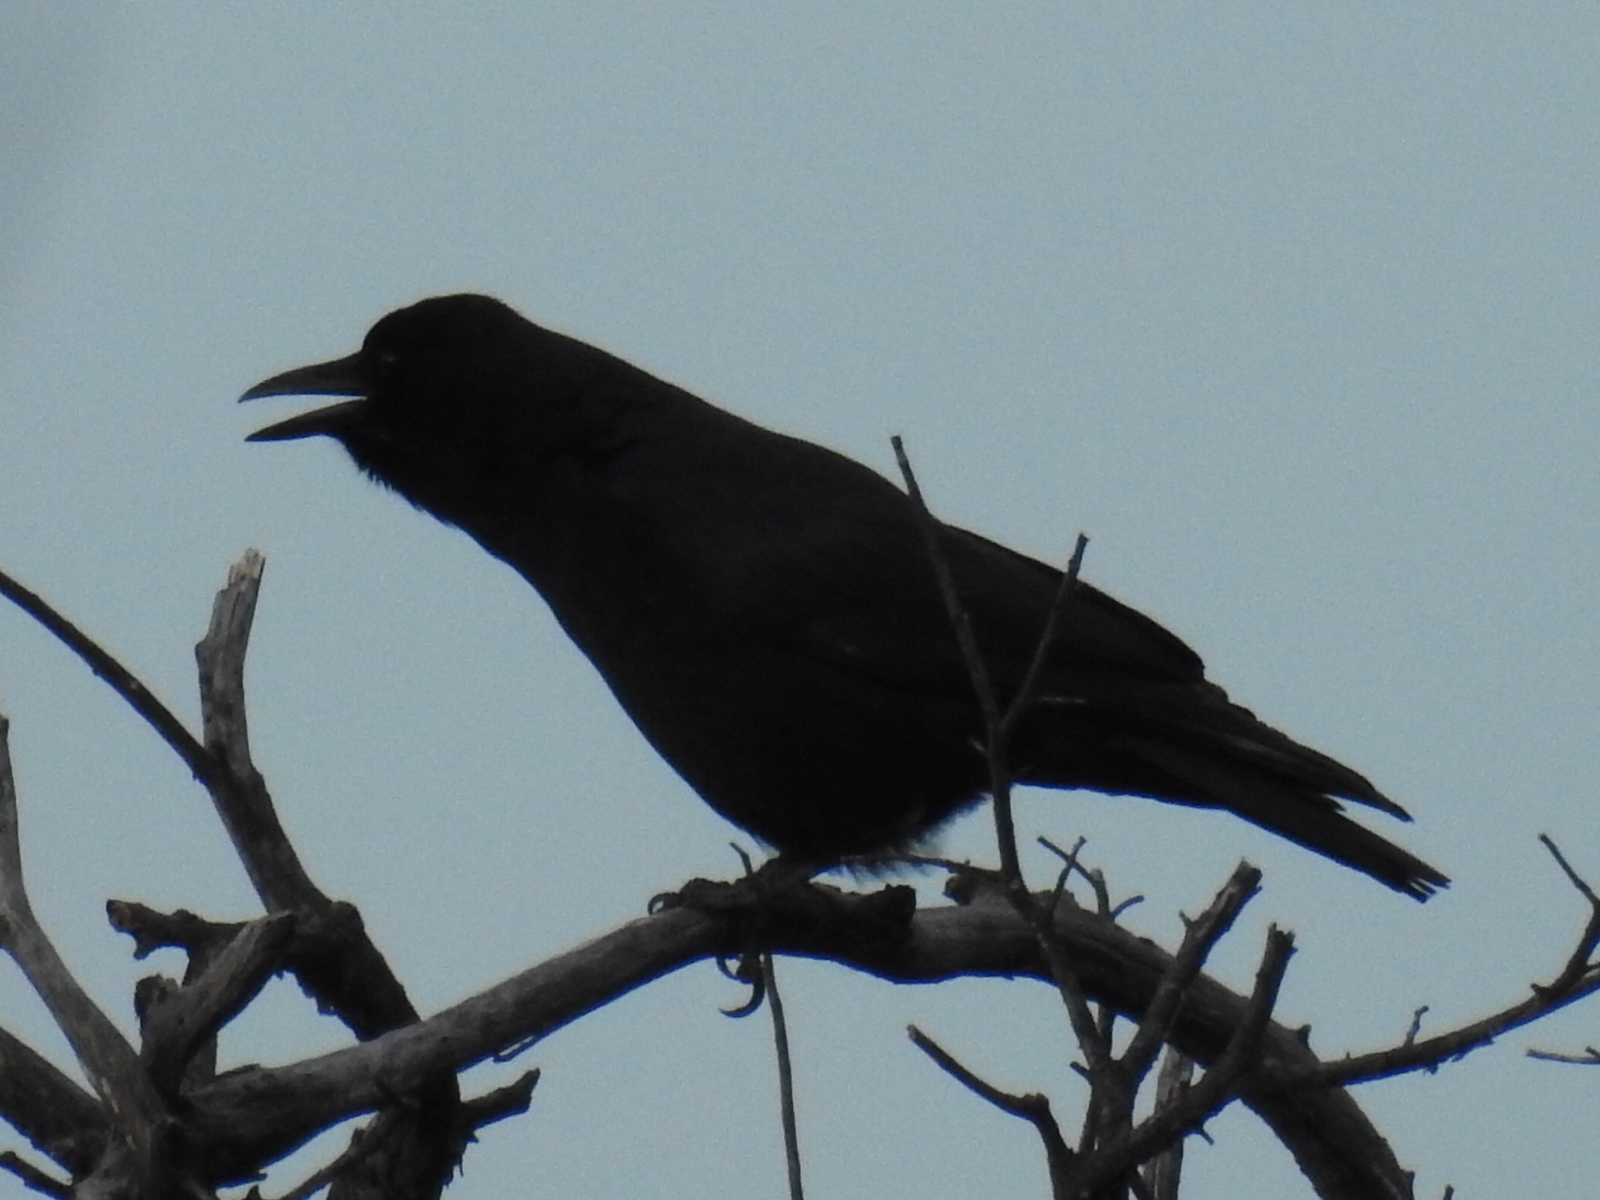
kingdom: Animalia
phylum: Chordata
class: Aves
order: Passeriformes
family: Corvidae
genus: Corvus
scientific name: Corvus brachyrhynchos
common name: American crow
